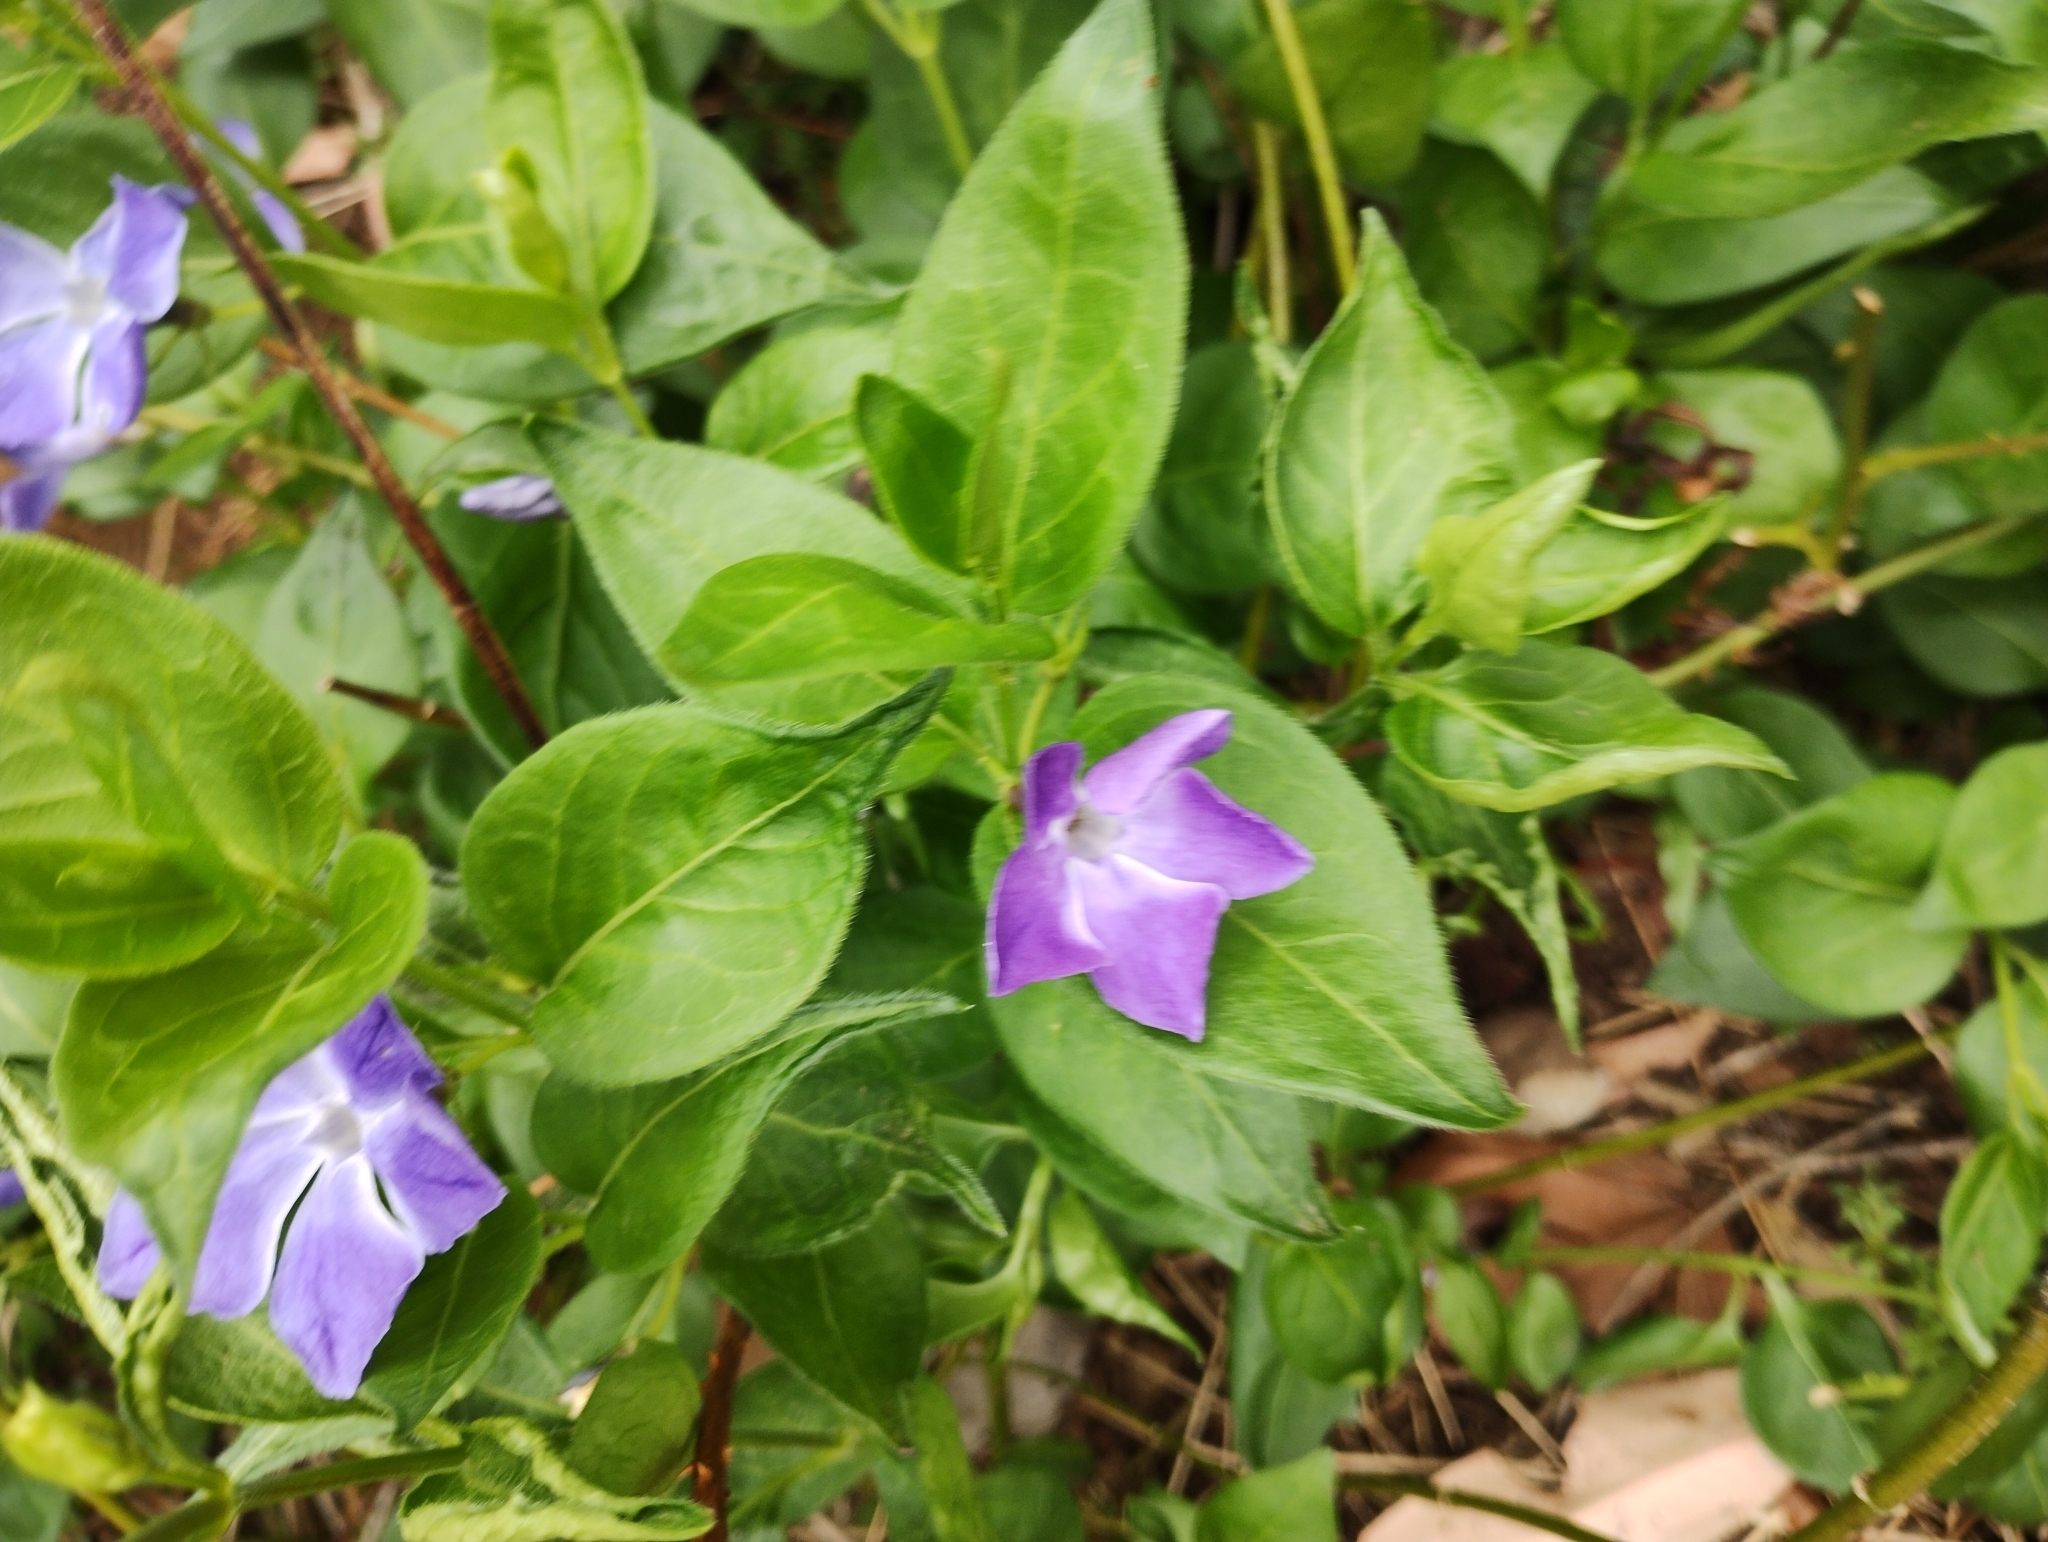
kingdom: Plantae
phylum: Tracheophyta
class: Magnoliopsida
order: Gentianales
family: Apocynaceae
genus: Vinca
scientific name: Vinca major
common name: Greater periwinkle
